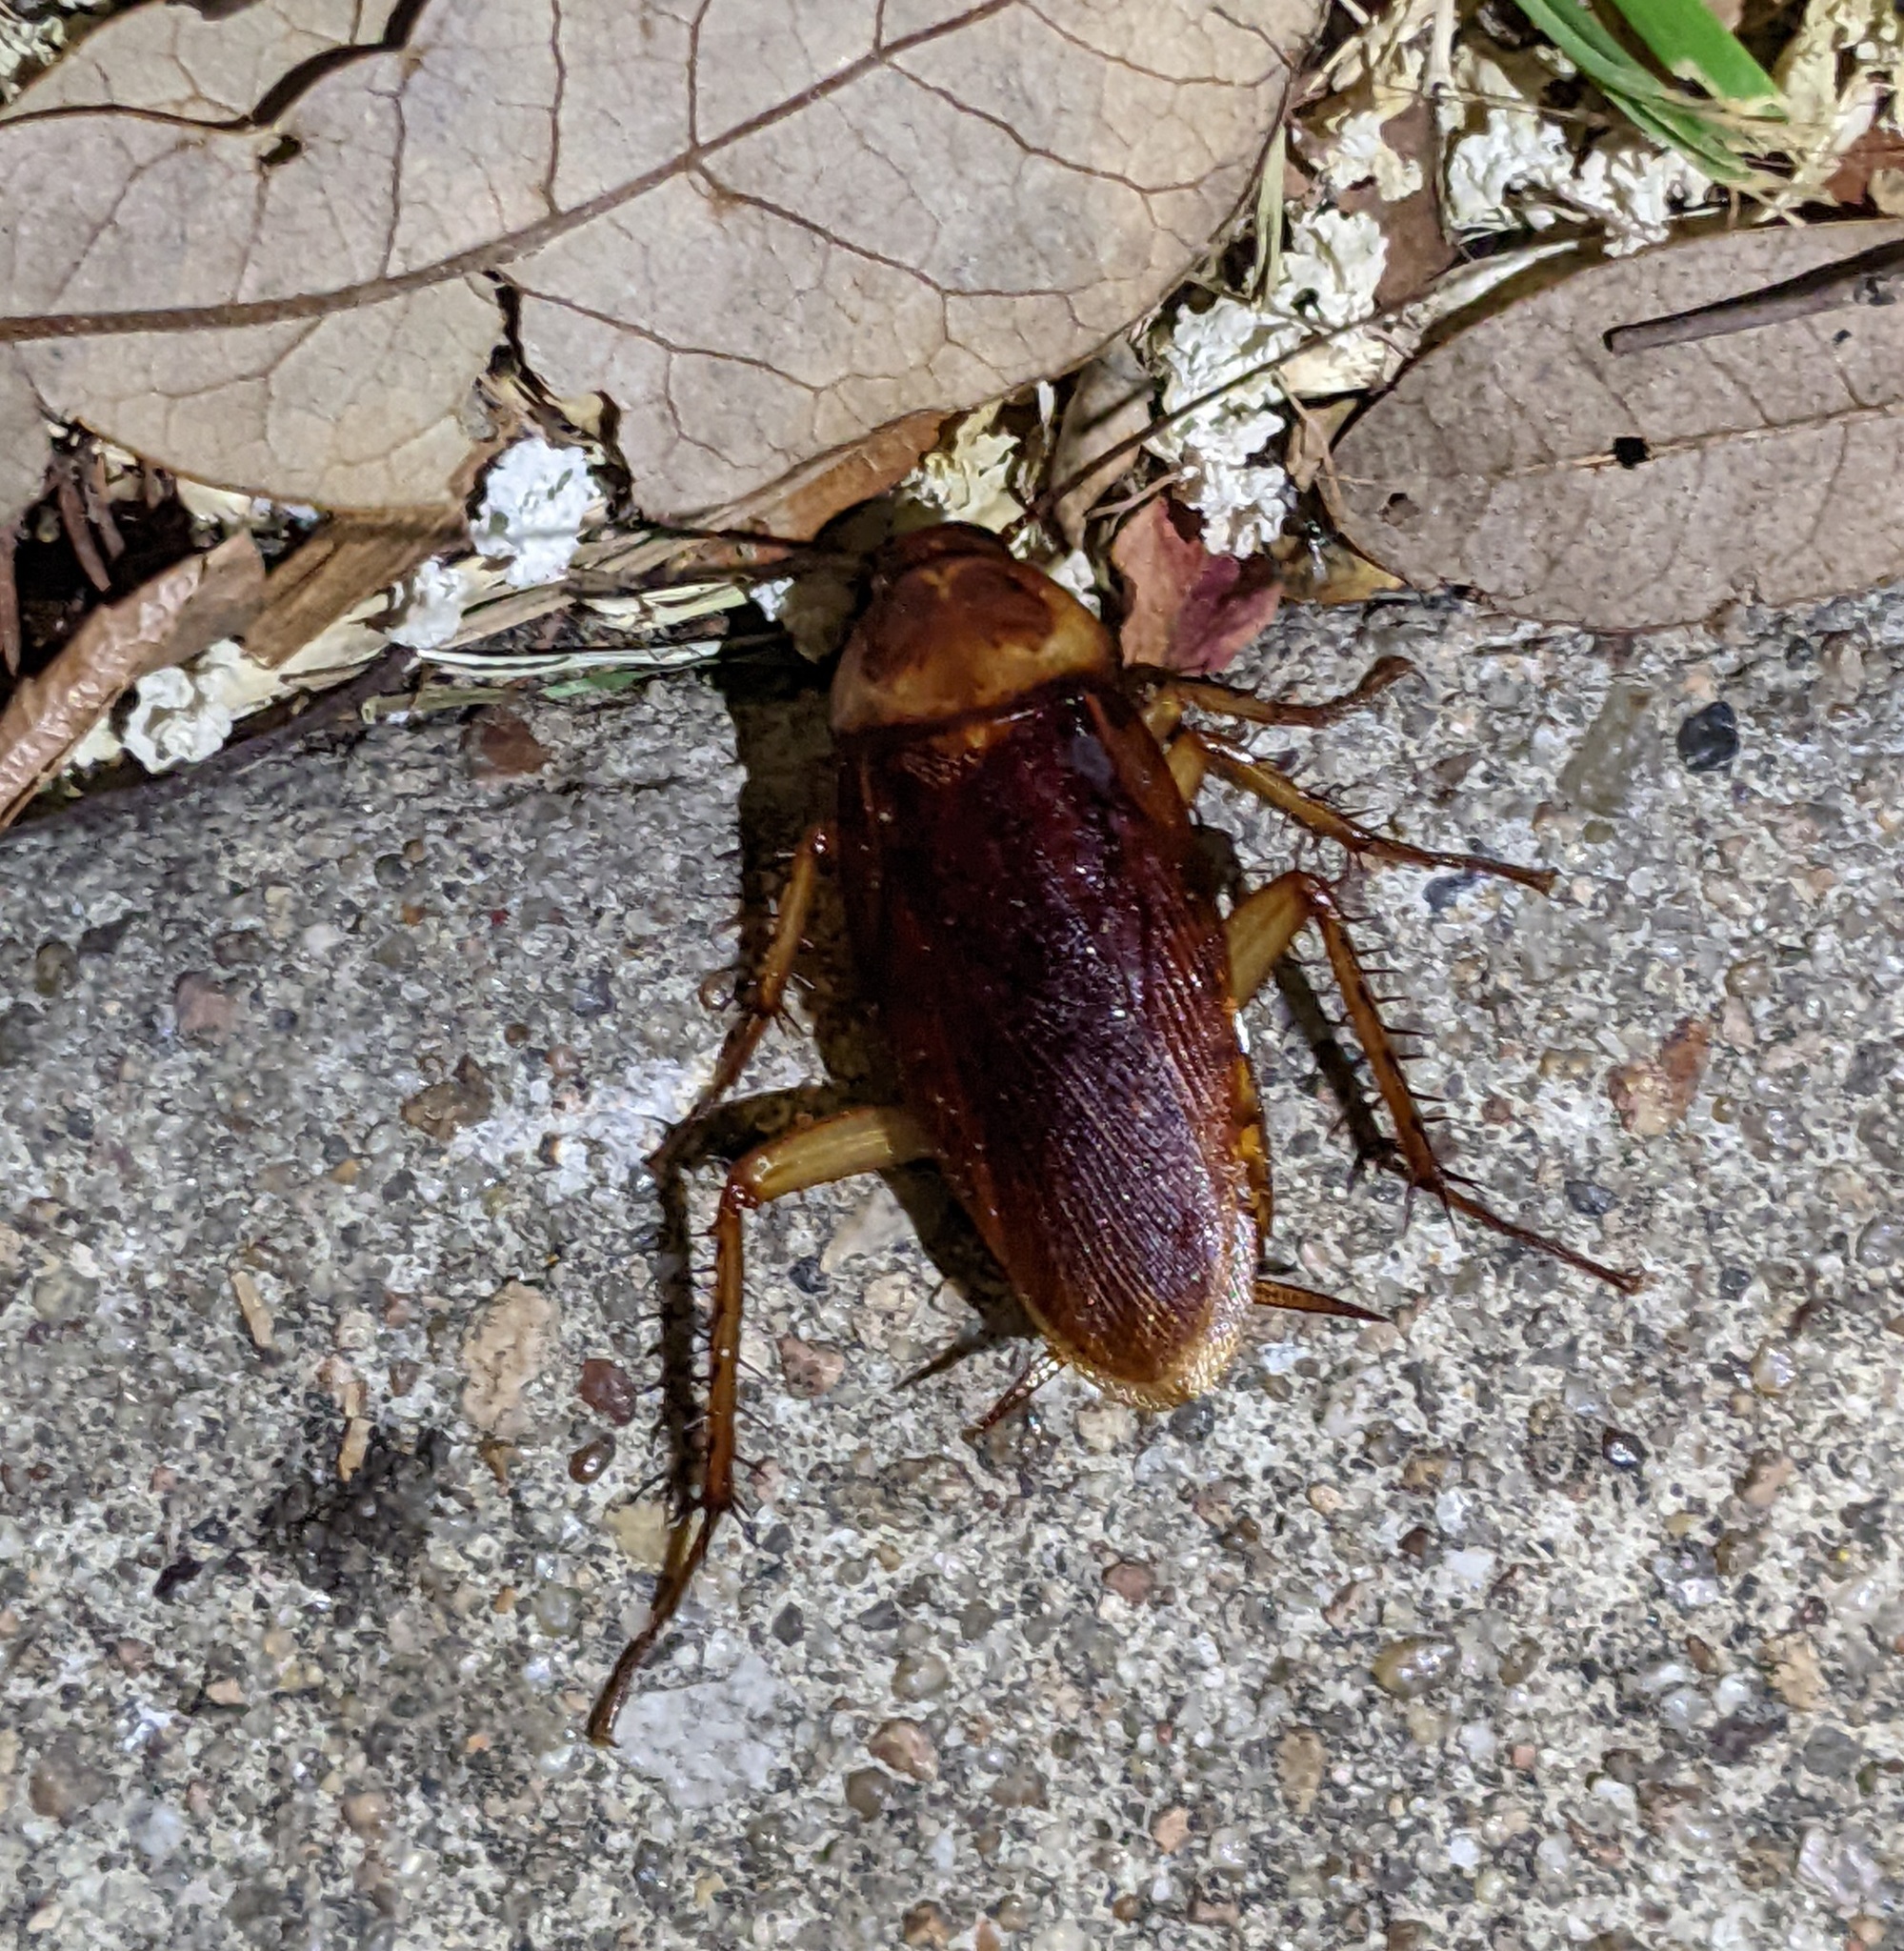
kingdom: Animalia
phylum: Arthropoda
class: Insecta
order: Blattodea
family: Blattidae
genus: Periplaneta
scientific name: Periplaneta americana
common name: American cockroach
